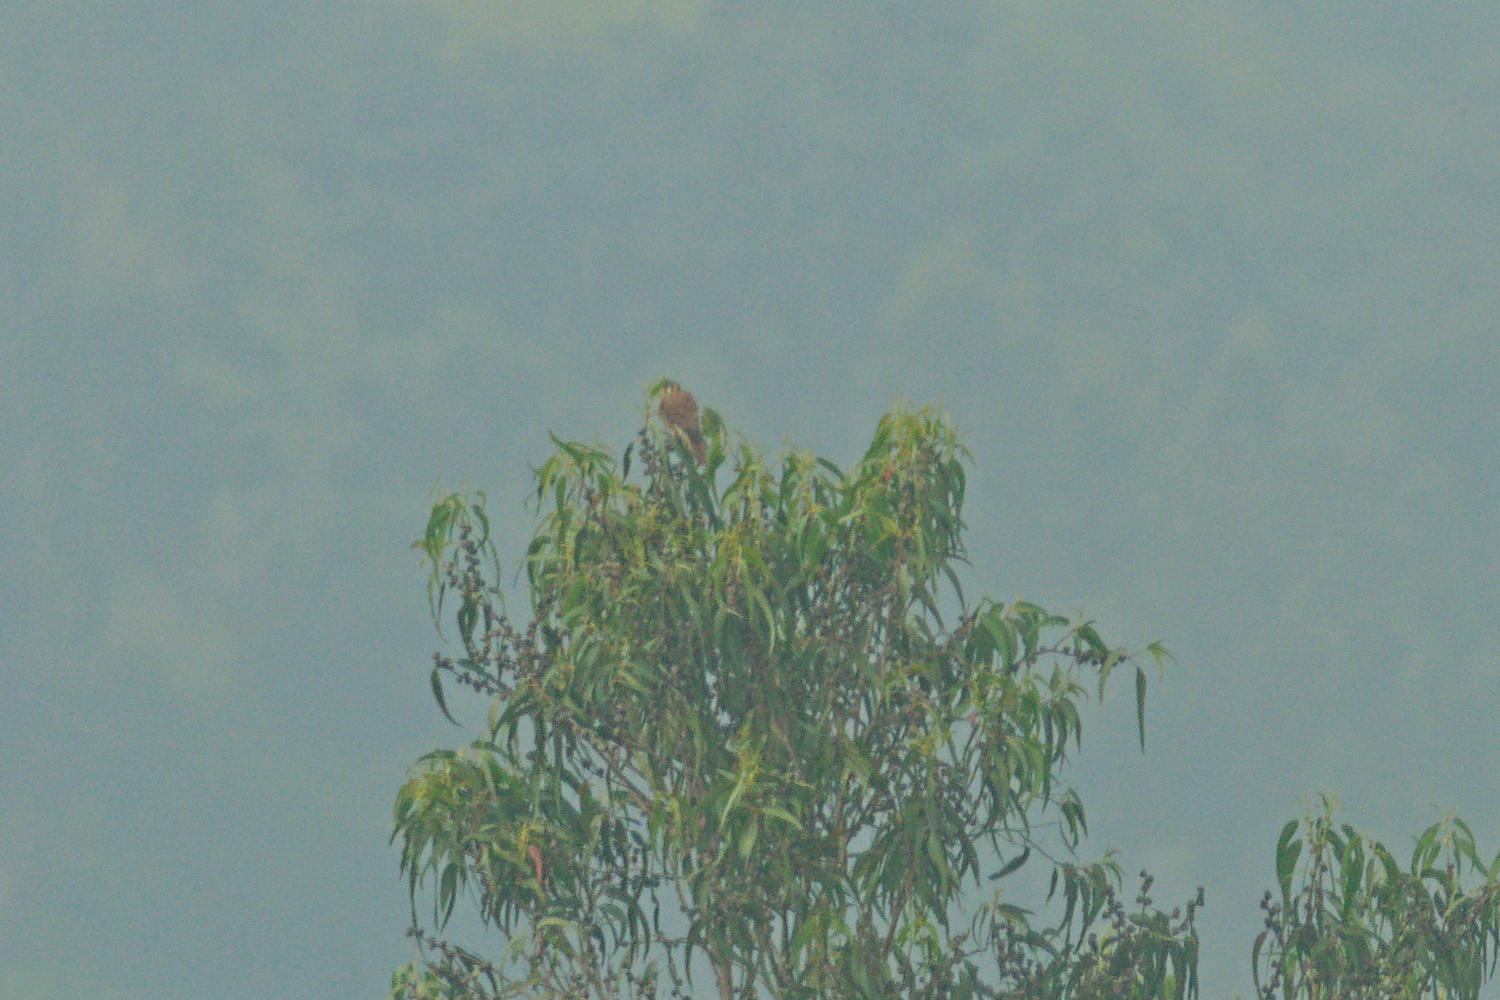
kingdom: Animalia
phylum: Chordata
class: Aves
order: Falconiformes
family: Falconidae
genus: Falco
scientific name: Falco sparverius
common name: American kestrel
